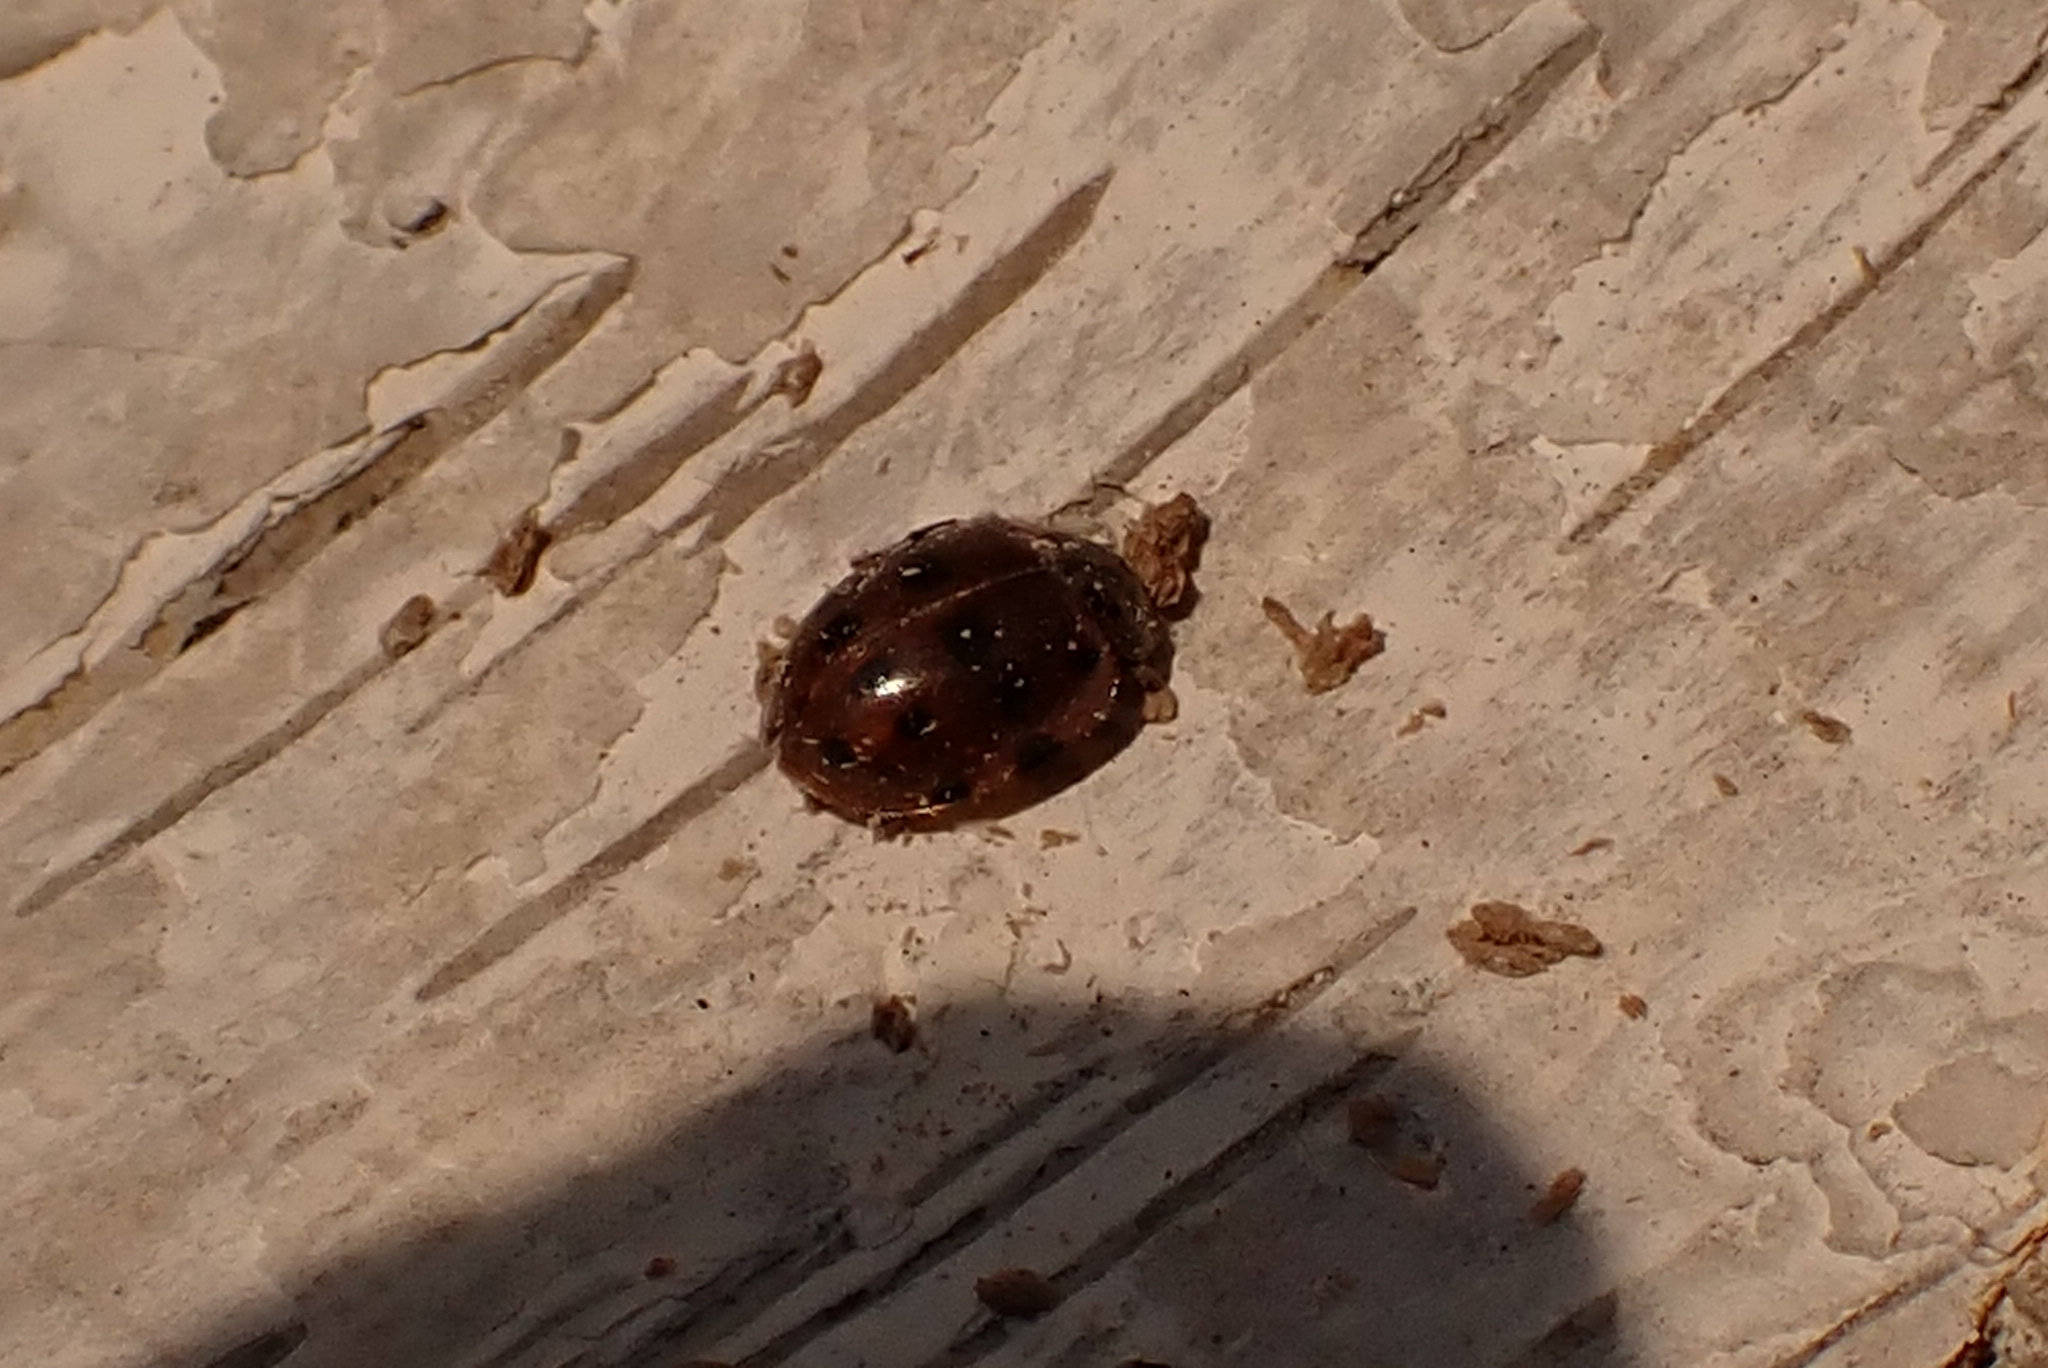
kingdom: Animalia
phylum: Arthropoda
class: Insecta
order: Coleoptera
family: Coccinellidae
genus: Harmonia
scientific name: Harmonia quadripunctata
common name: Cream-streaked ladybird
